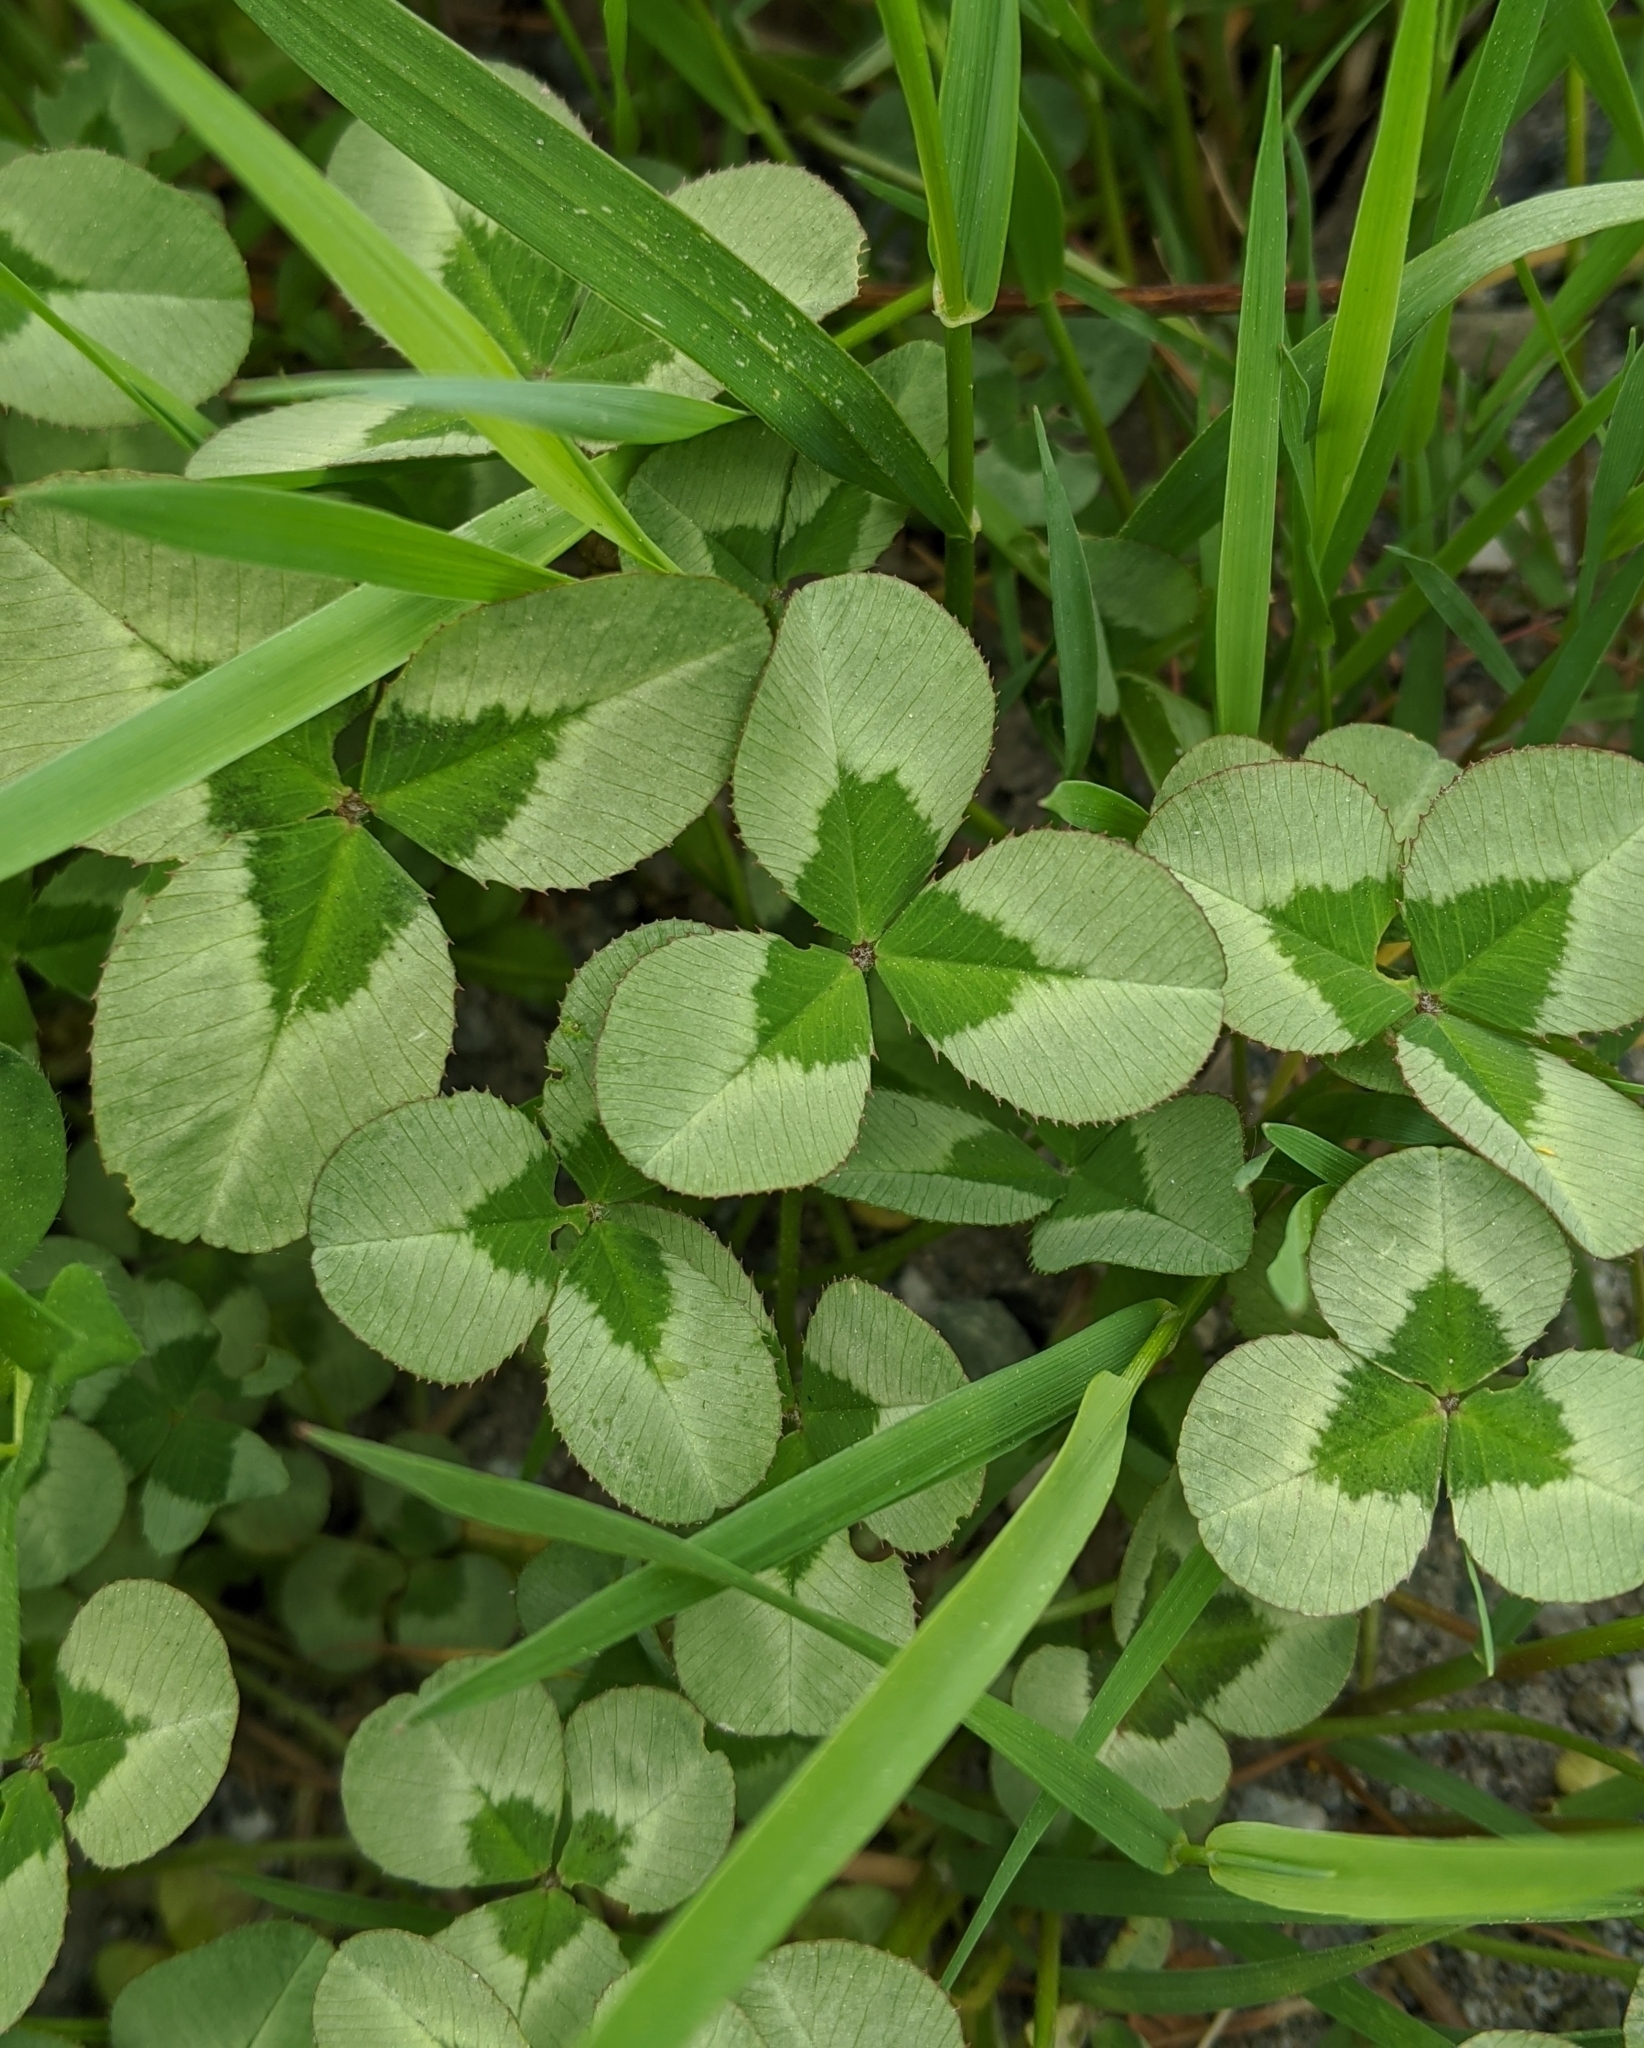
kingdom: Plantae
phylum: Tracheophyta
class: Magnoliopsida
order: Fabales
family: Fabaceae
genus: Trifolium
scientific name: Trifolium repens
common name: White clover
